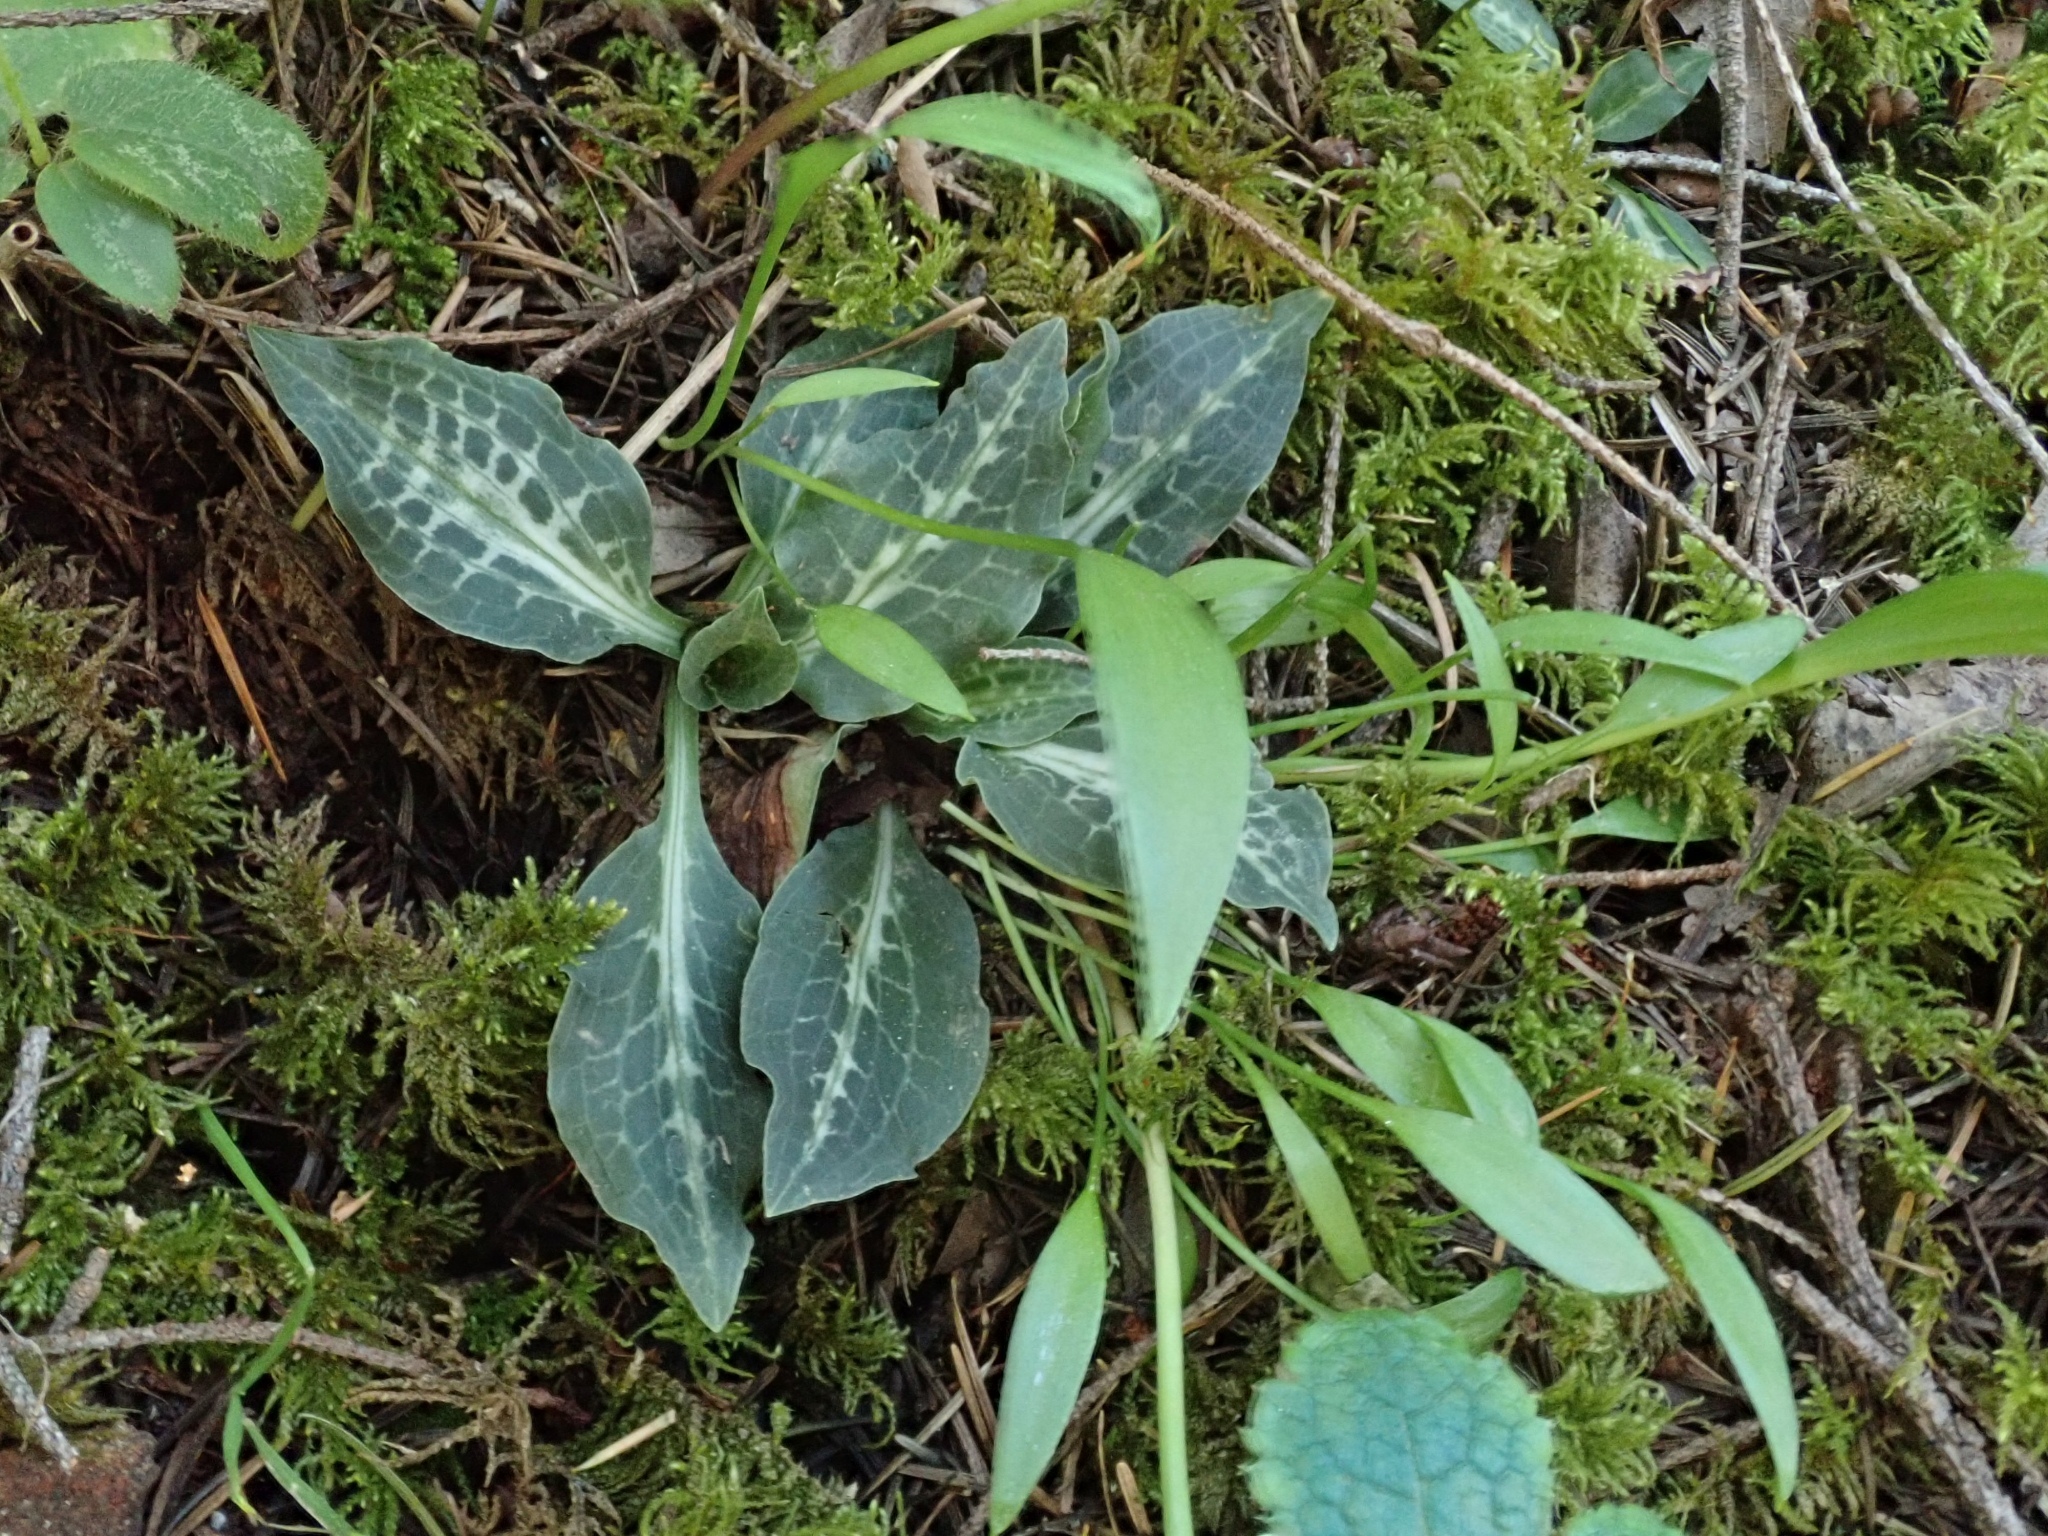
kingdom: Plantae
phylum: Tracheophyta
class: Liliopsida
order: Asparagales
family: Orchidaceae
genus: Goodyera
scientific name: Goodyera oblongifolia
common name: Giant rattlesnake-plantain
